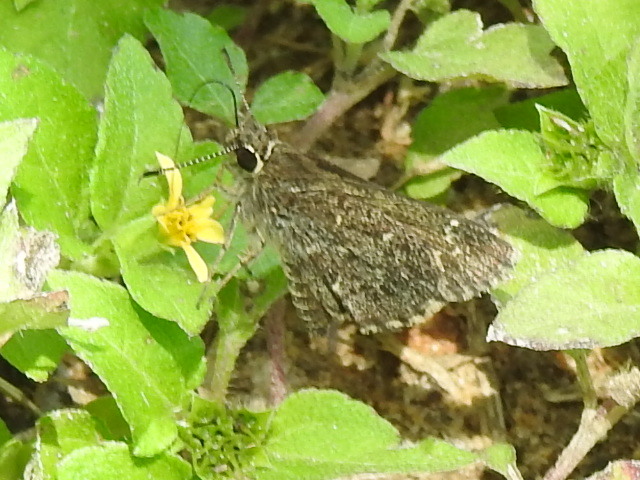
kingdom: Animalia
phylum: Arthropoda
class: Insecta
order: Lepidoptera
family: Hesperiidae
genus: Mastor
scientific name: Mastor celia
